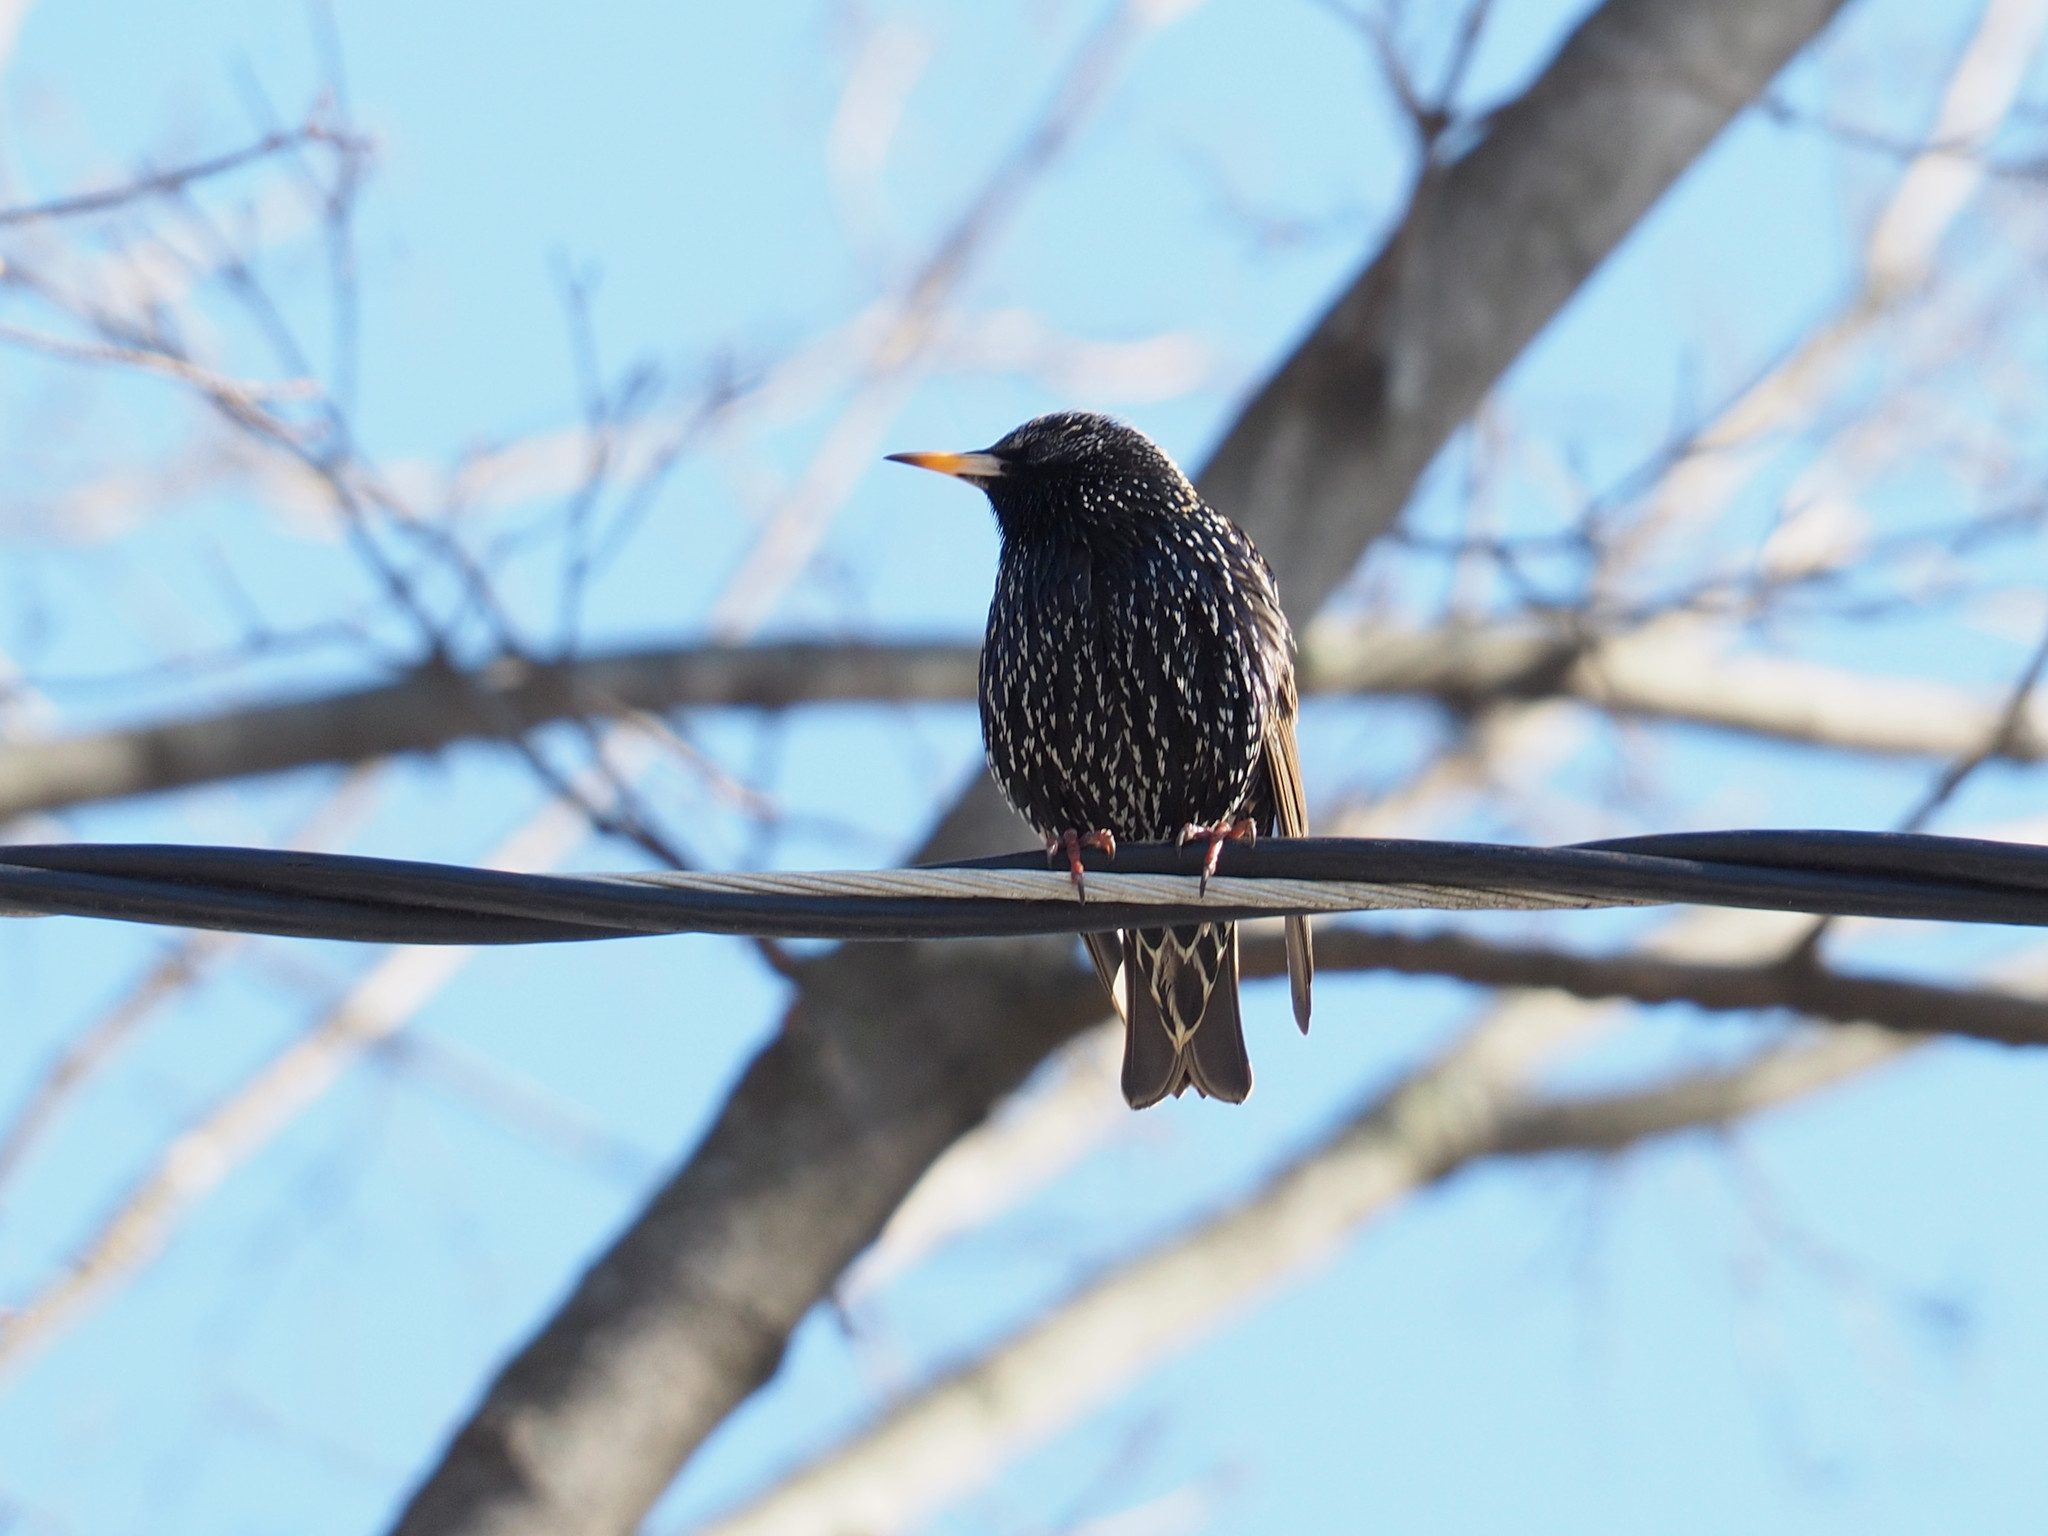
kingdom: Animalia
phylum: Chordata
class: Aves
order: Passeriformes
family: Sturnidae
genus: Sturnus
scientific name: Sturnus vulgaris
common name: Common starling
